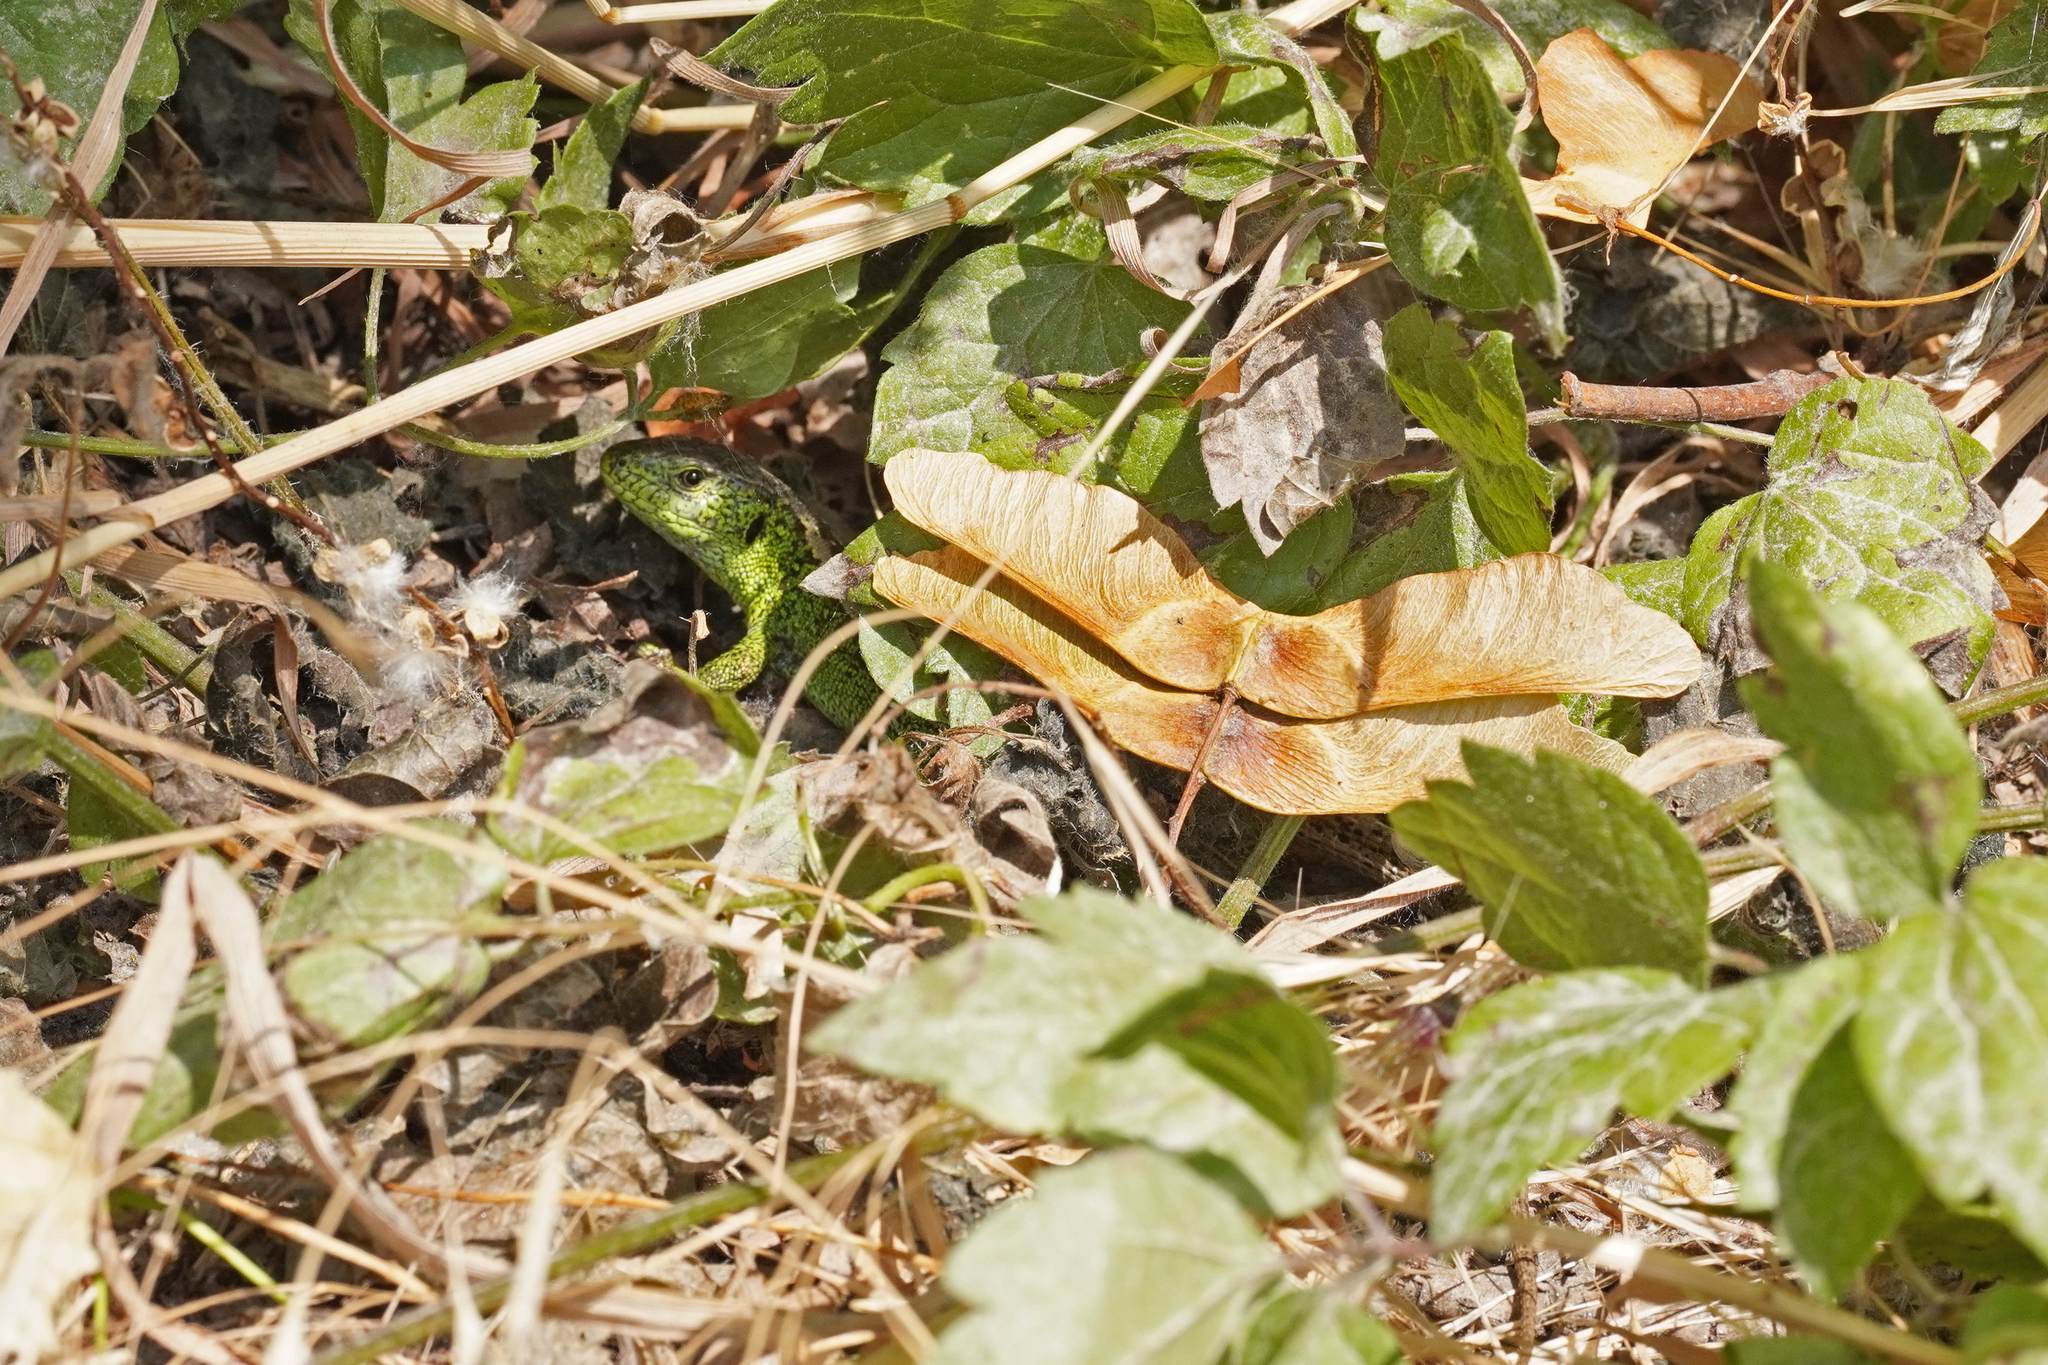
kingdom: Animalia
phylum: Chordata
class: Squamata
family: Lacertidae
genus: Lacerta
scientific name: Lacerta agilis
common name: Sand lizard
